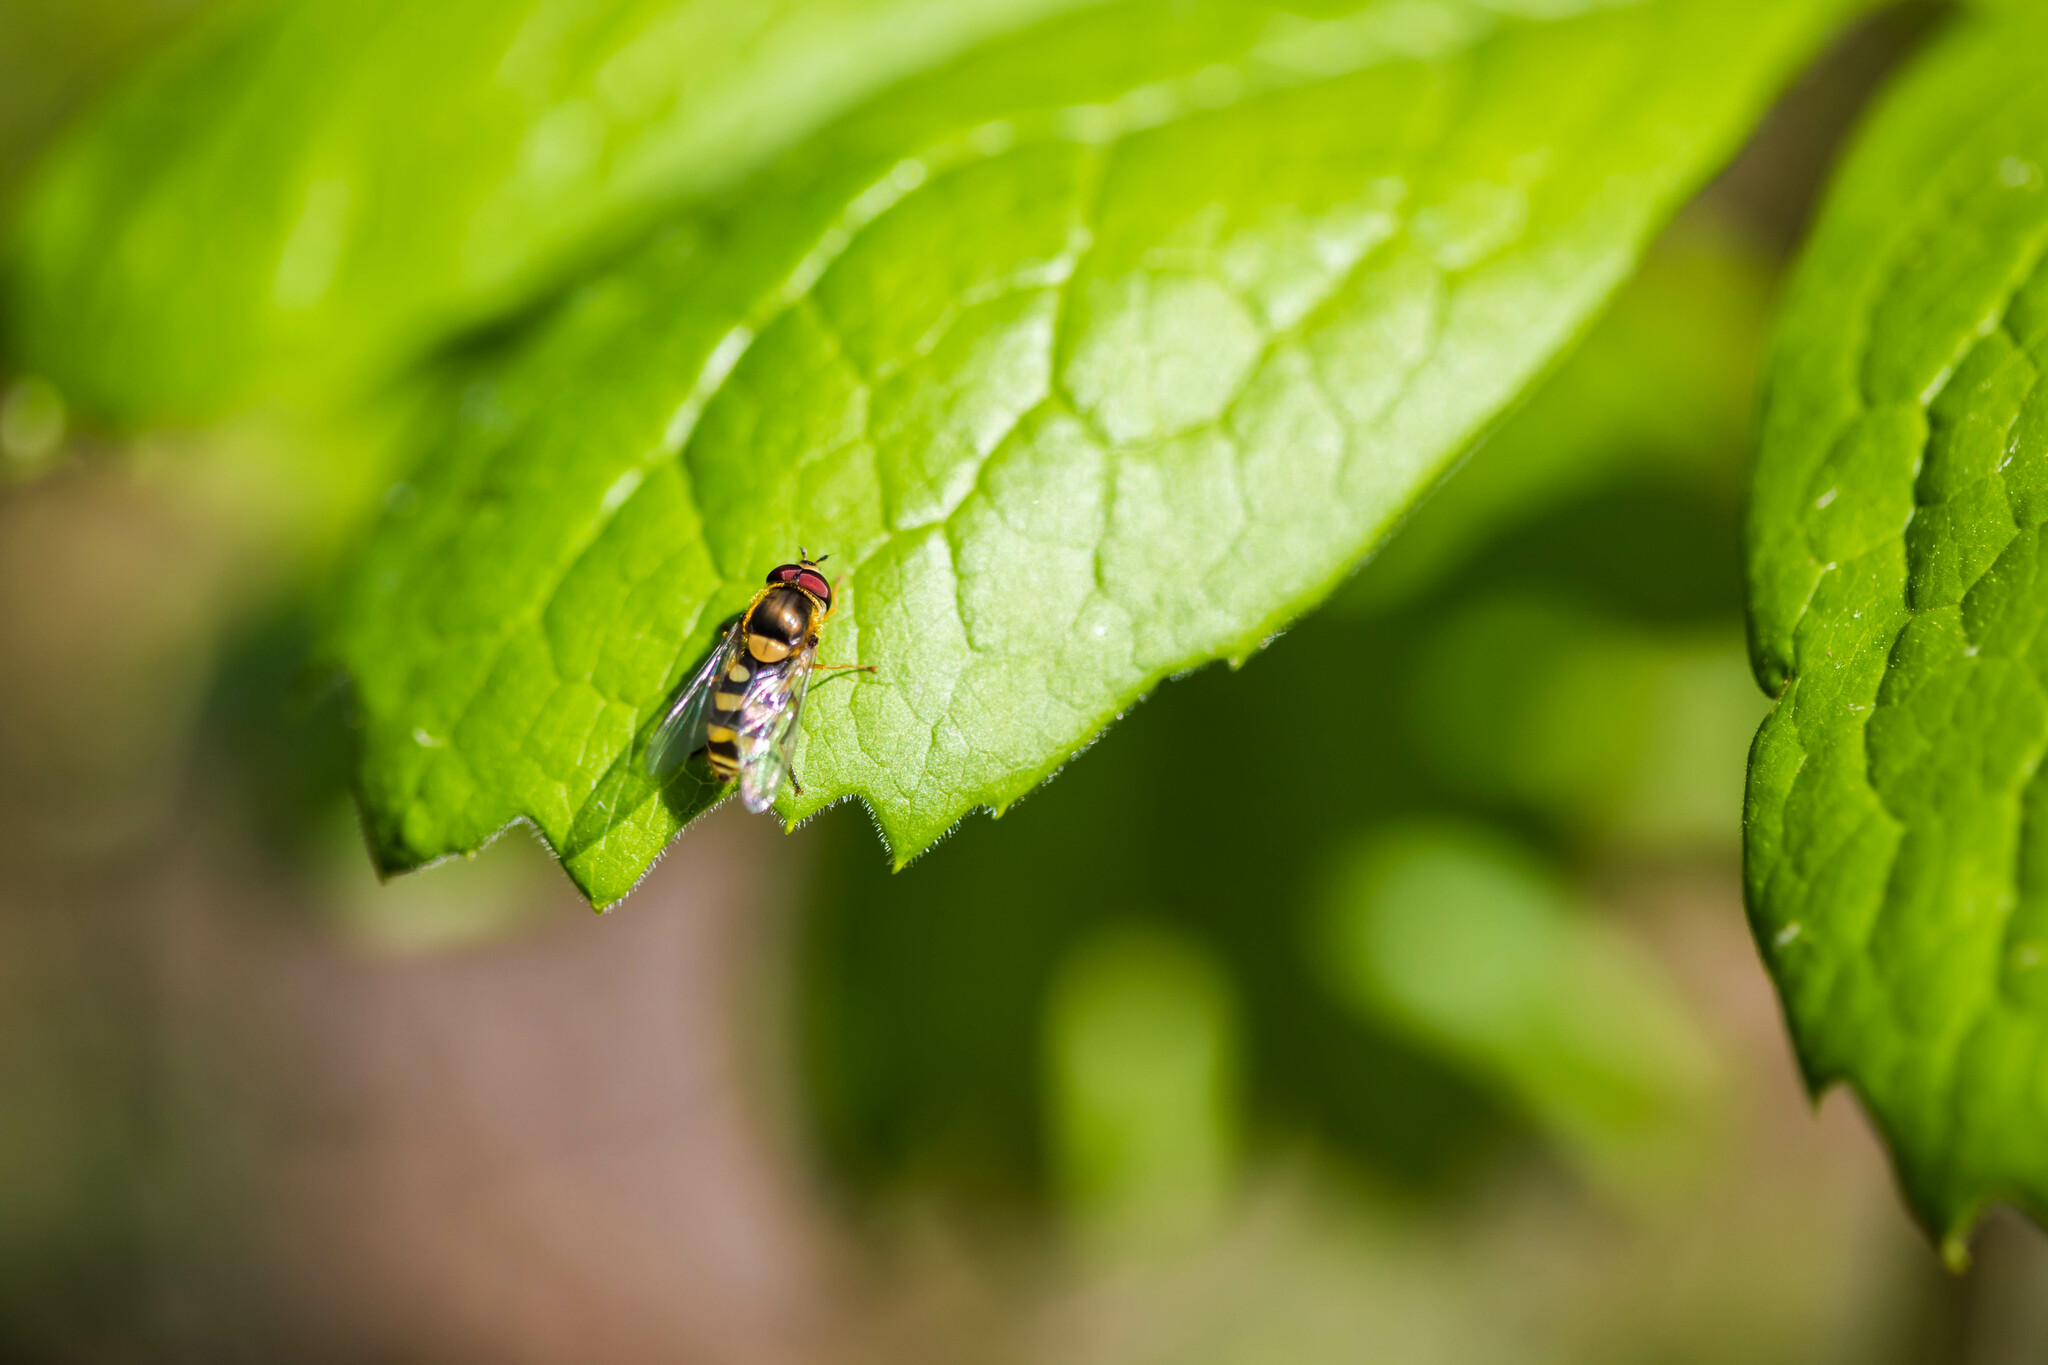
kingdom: Animalia
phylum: Arthropoda
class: Insecta
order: Diptera
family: Syrphidae
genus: Syrphus
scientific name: Syrphus
